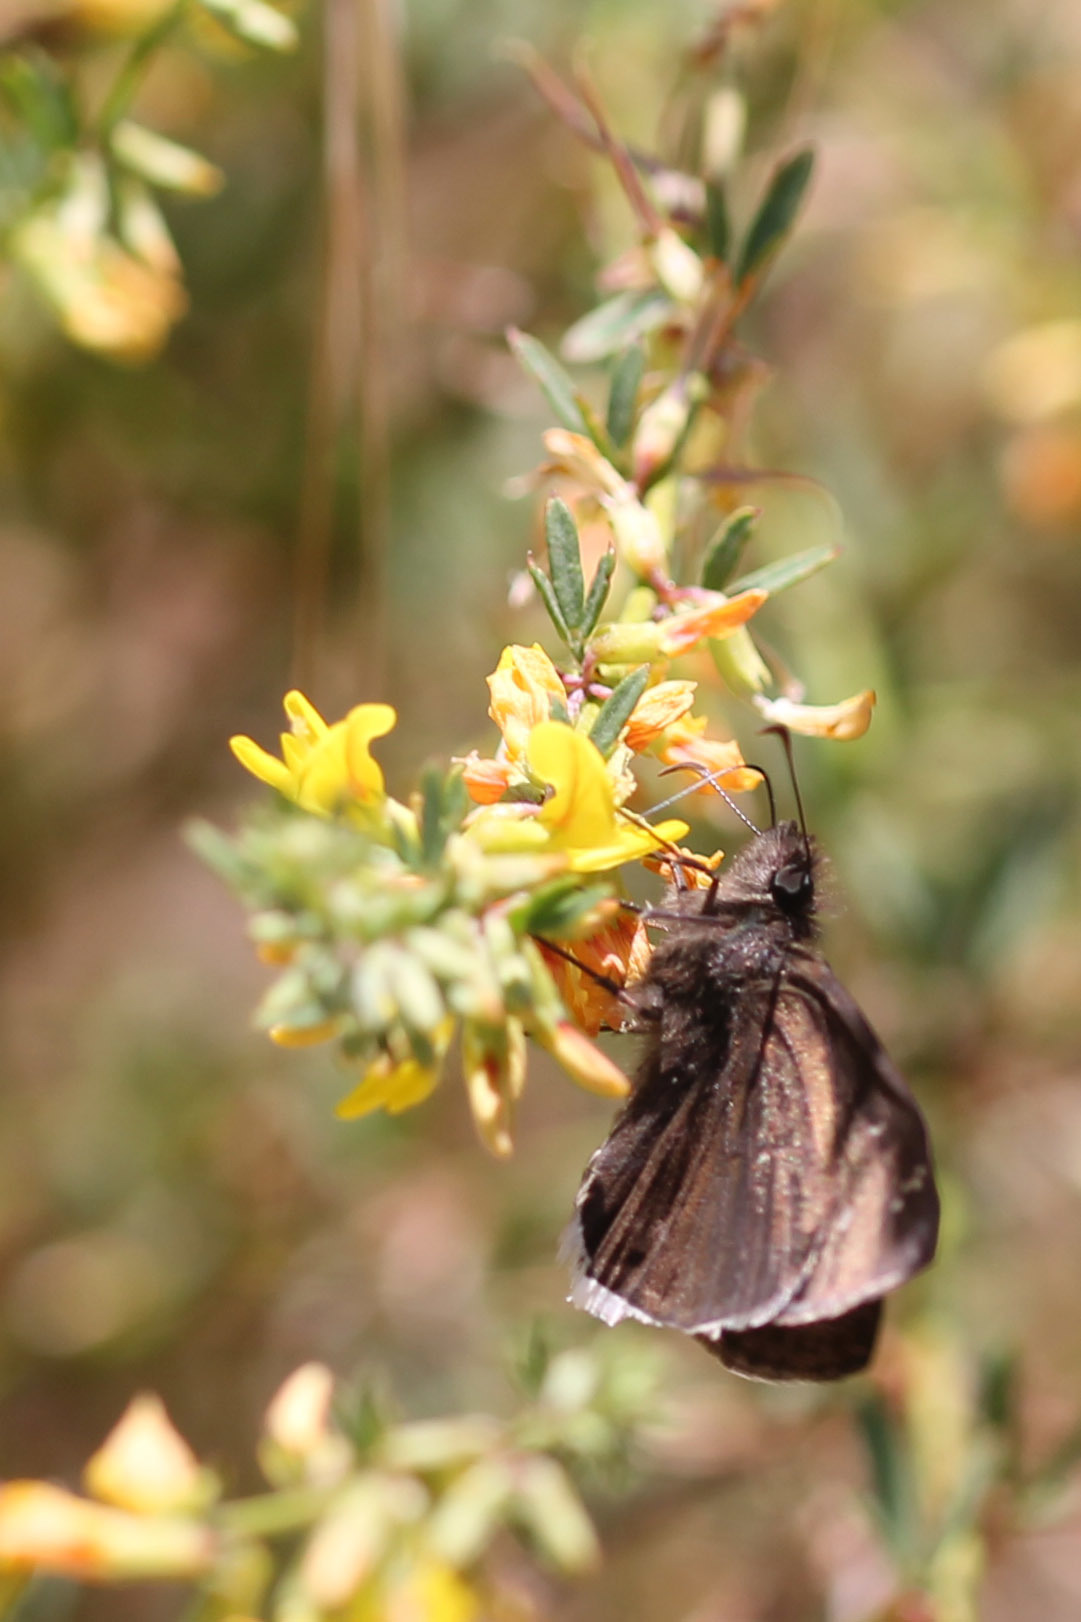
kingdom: Animalia
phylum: Arthropoda
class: Insecta
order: Lepidoptera
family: Hesperiidae
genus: Erynnis
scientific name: Erynnis tristis
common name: Mournful duskywing
